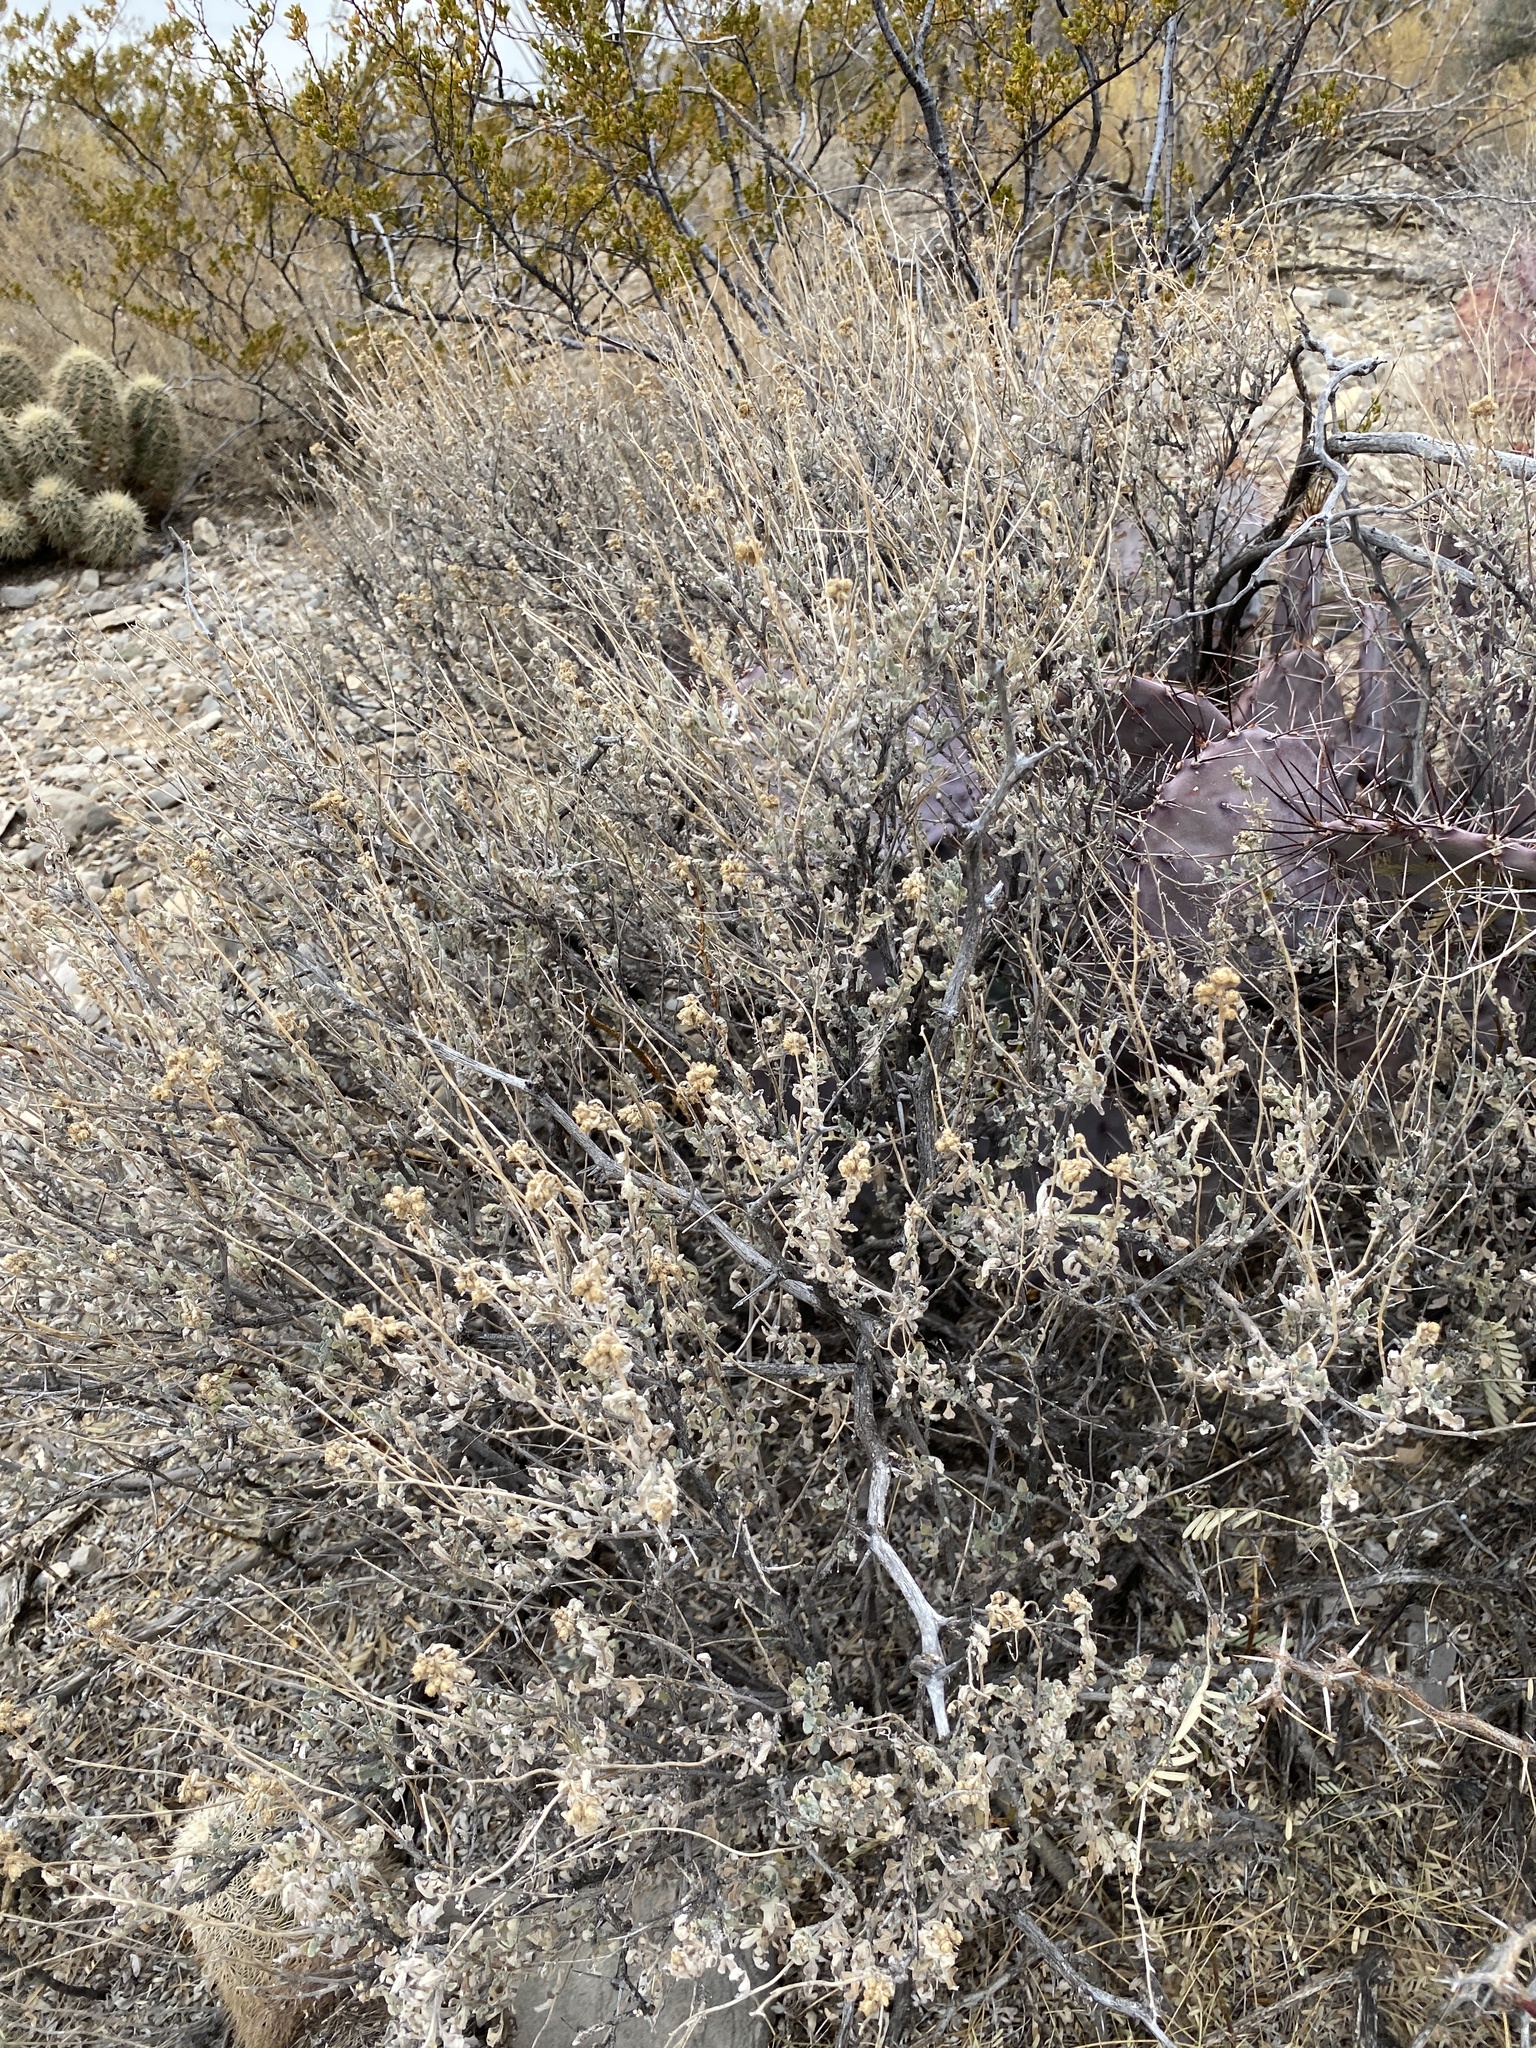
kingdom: Plantae
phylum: Tracheophyta
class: Magnoliopsida
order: Asterales
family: Asteraceae
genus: Parthenium
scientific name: Parthenium incanum
